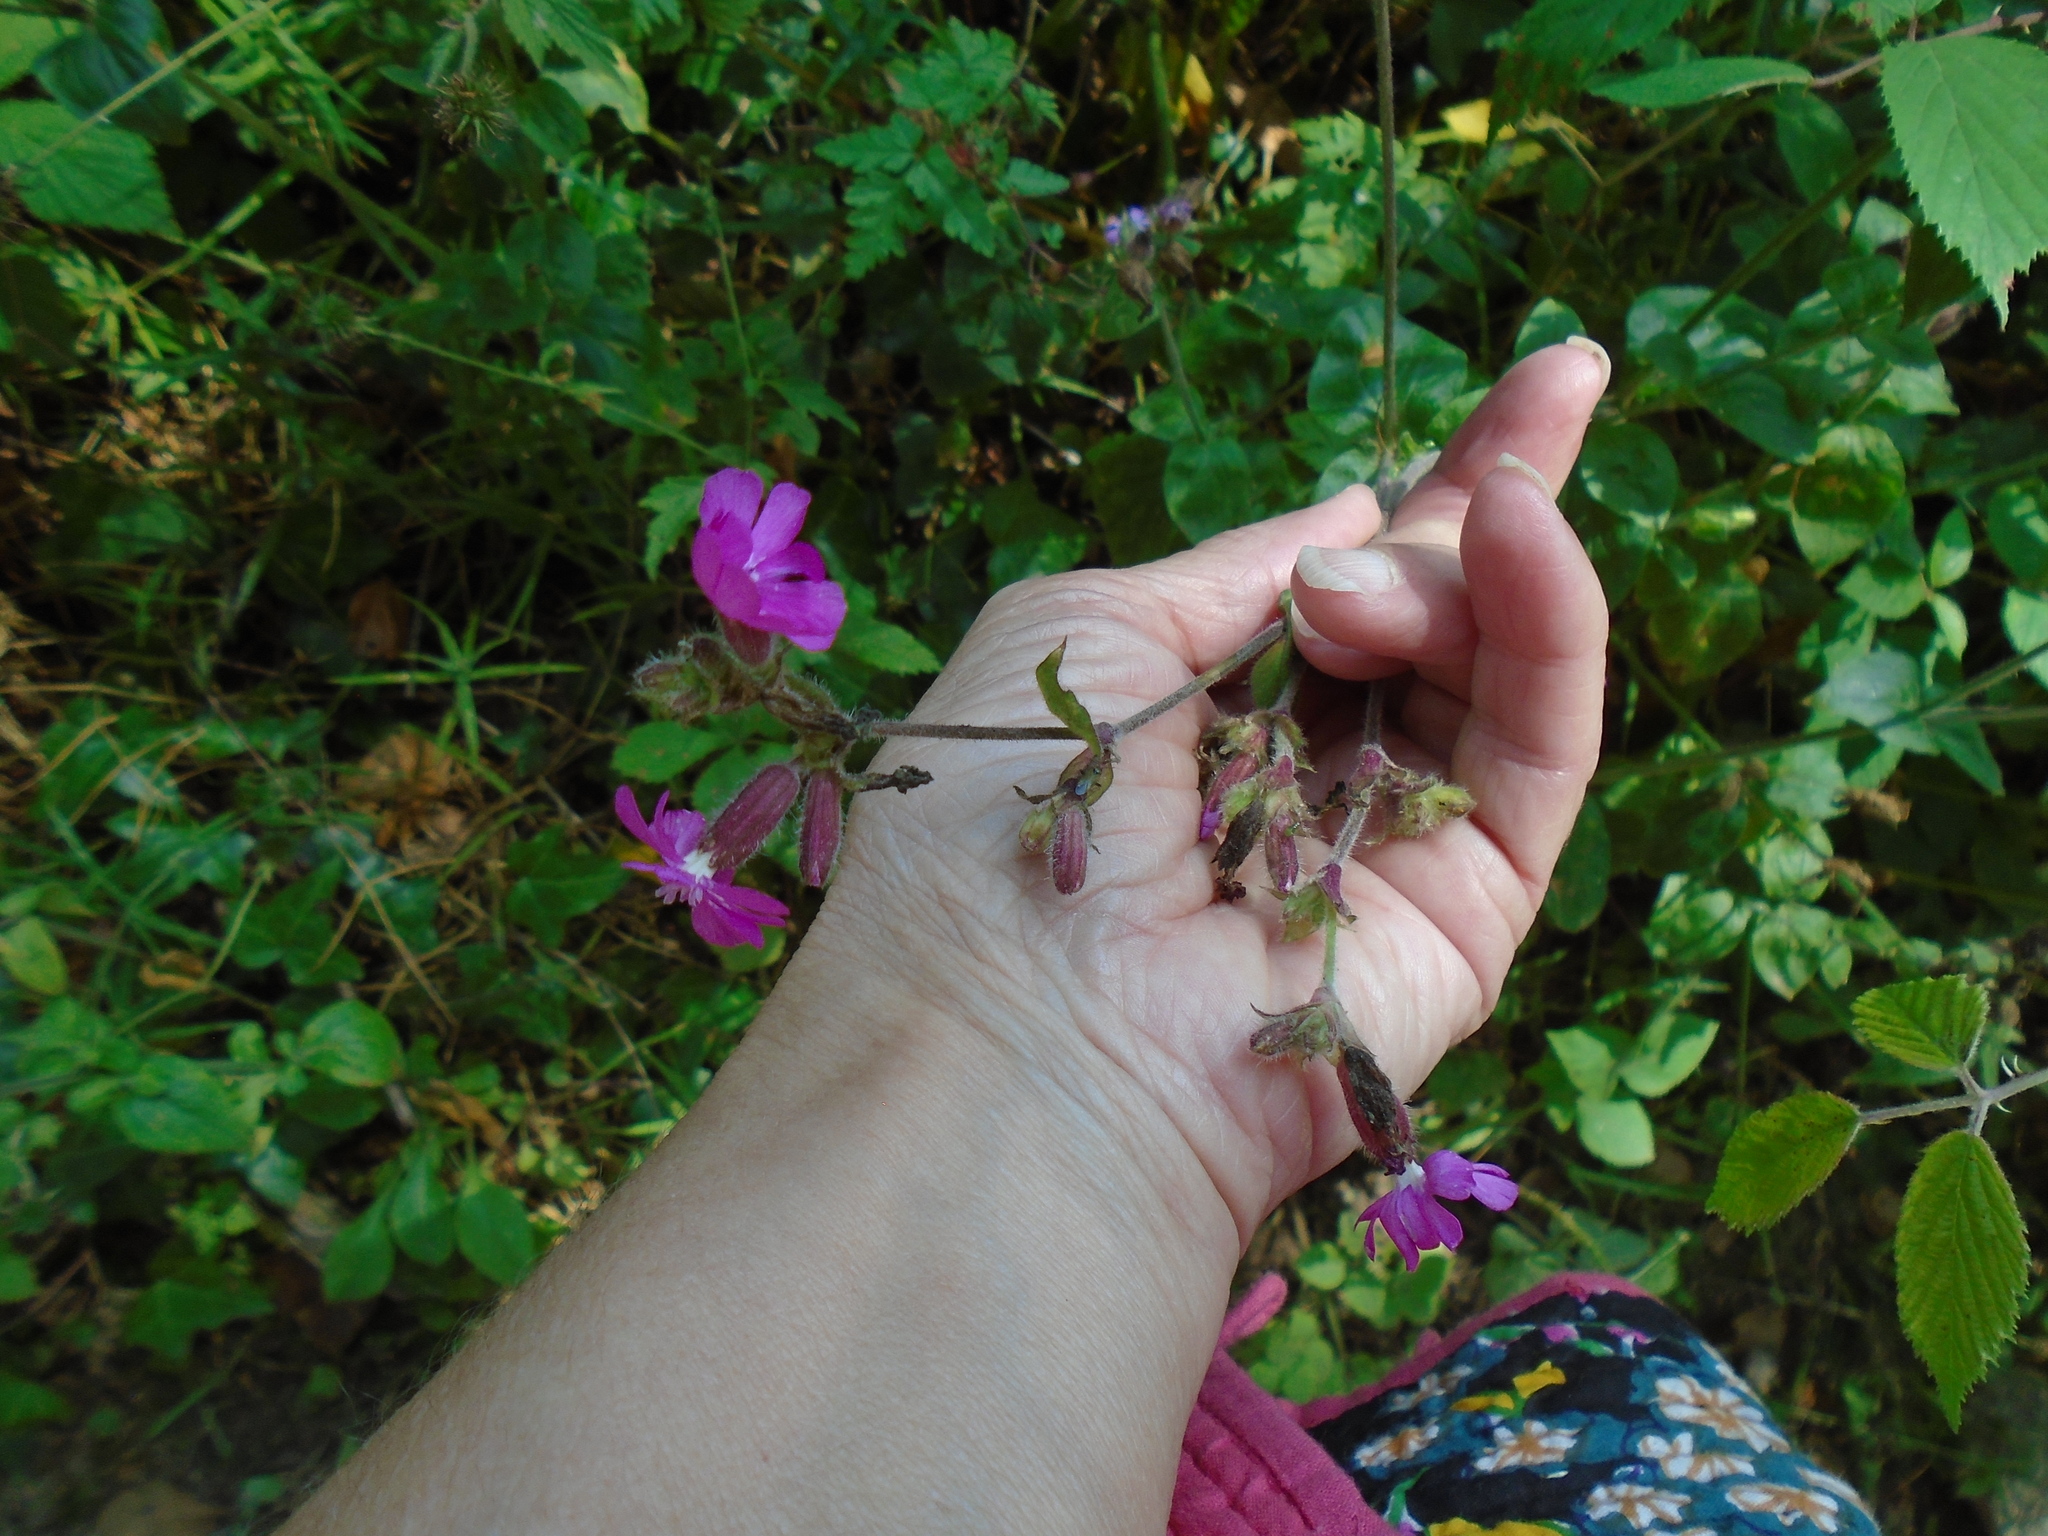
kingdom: Plantae
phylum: Tracheophyta
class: Magnoliopsida
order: Caryophyllales
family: Caryophyllaceae
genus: Silene
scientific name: Silene dioica
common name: Red campion
